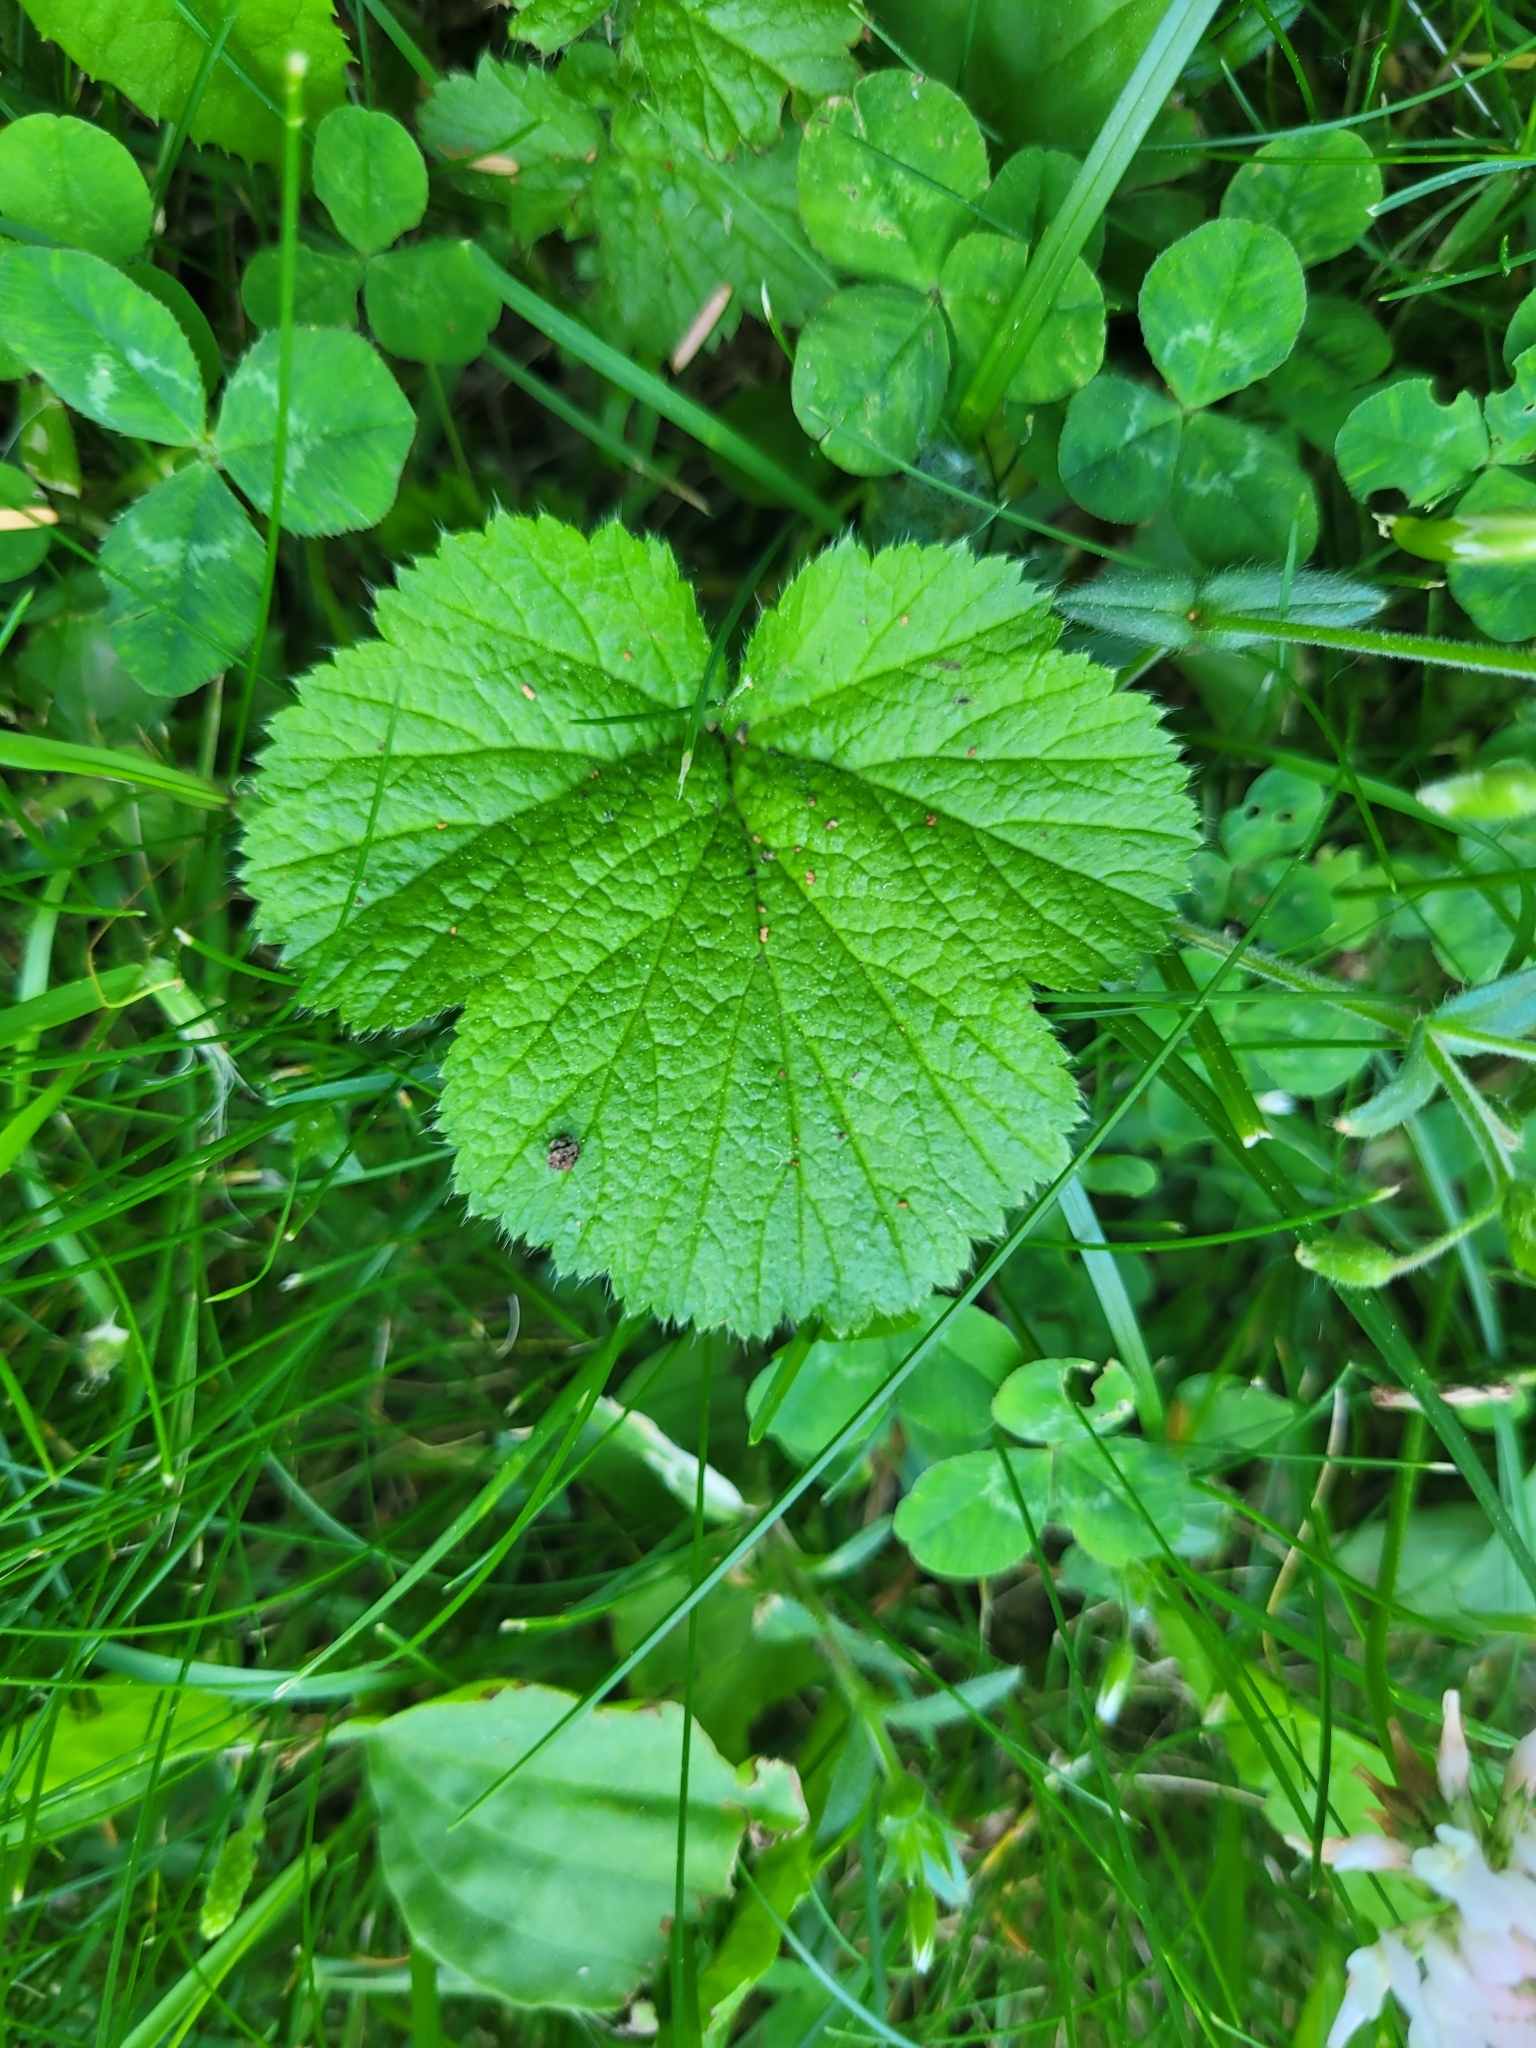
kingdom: Plantae
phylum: Tracheophyta
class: Magnoliopsida
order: Rosales
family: Rosaceae
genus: Geum
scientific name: Geum macrophyllum
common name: Large-leaved avens
